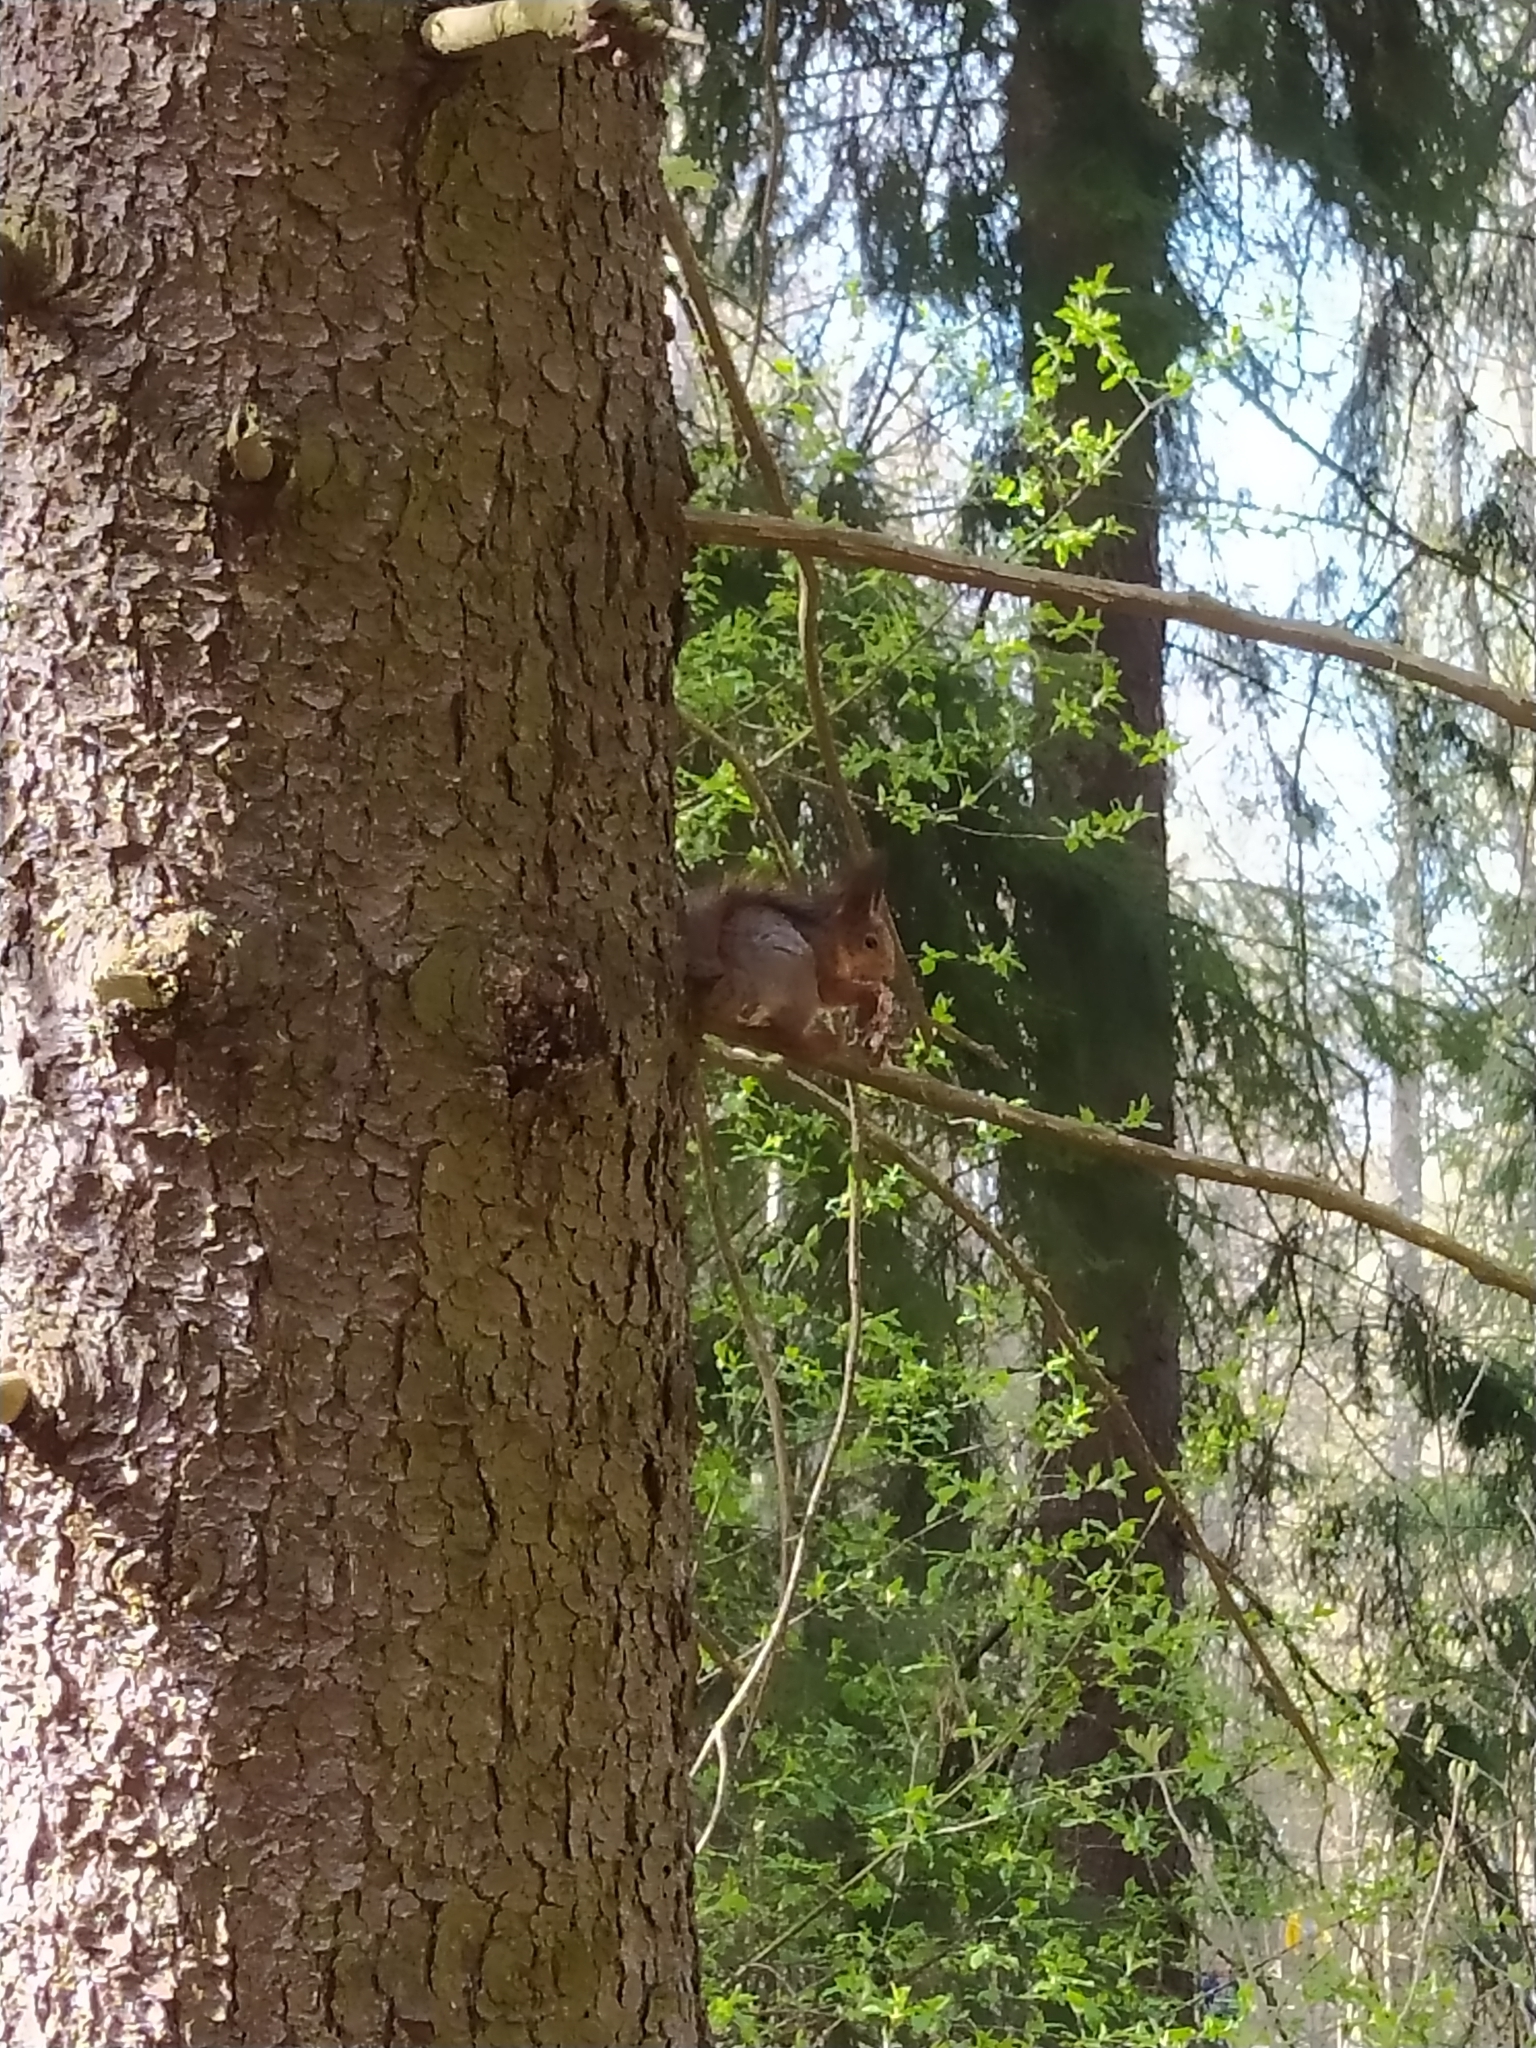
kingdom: Animalia
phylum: Chordata
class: Mammalia
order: Rodentia
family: Sciuridae
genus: Sciurus
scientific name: Sciurus vulgaris
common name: Eurasian red squirrel
